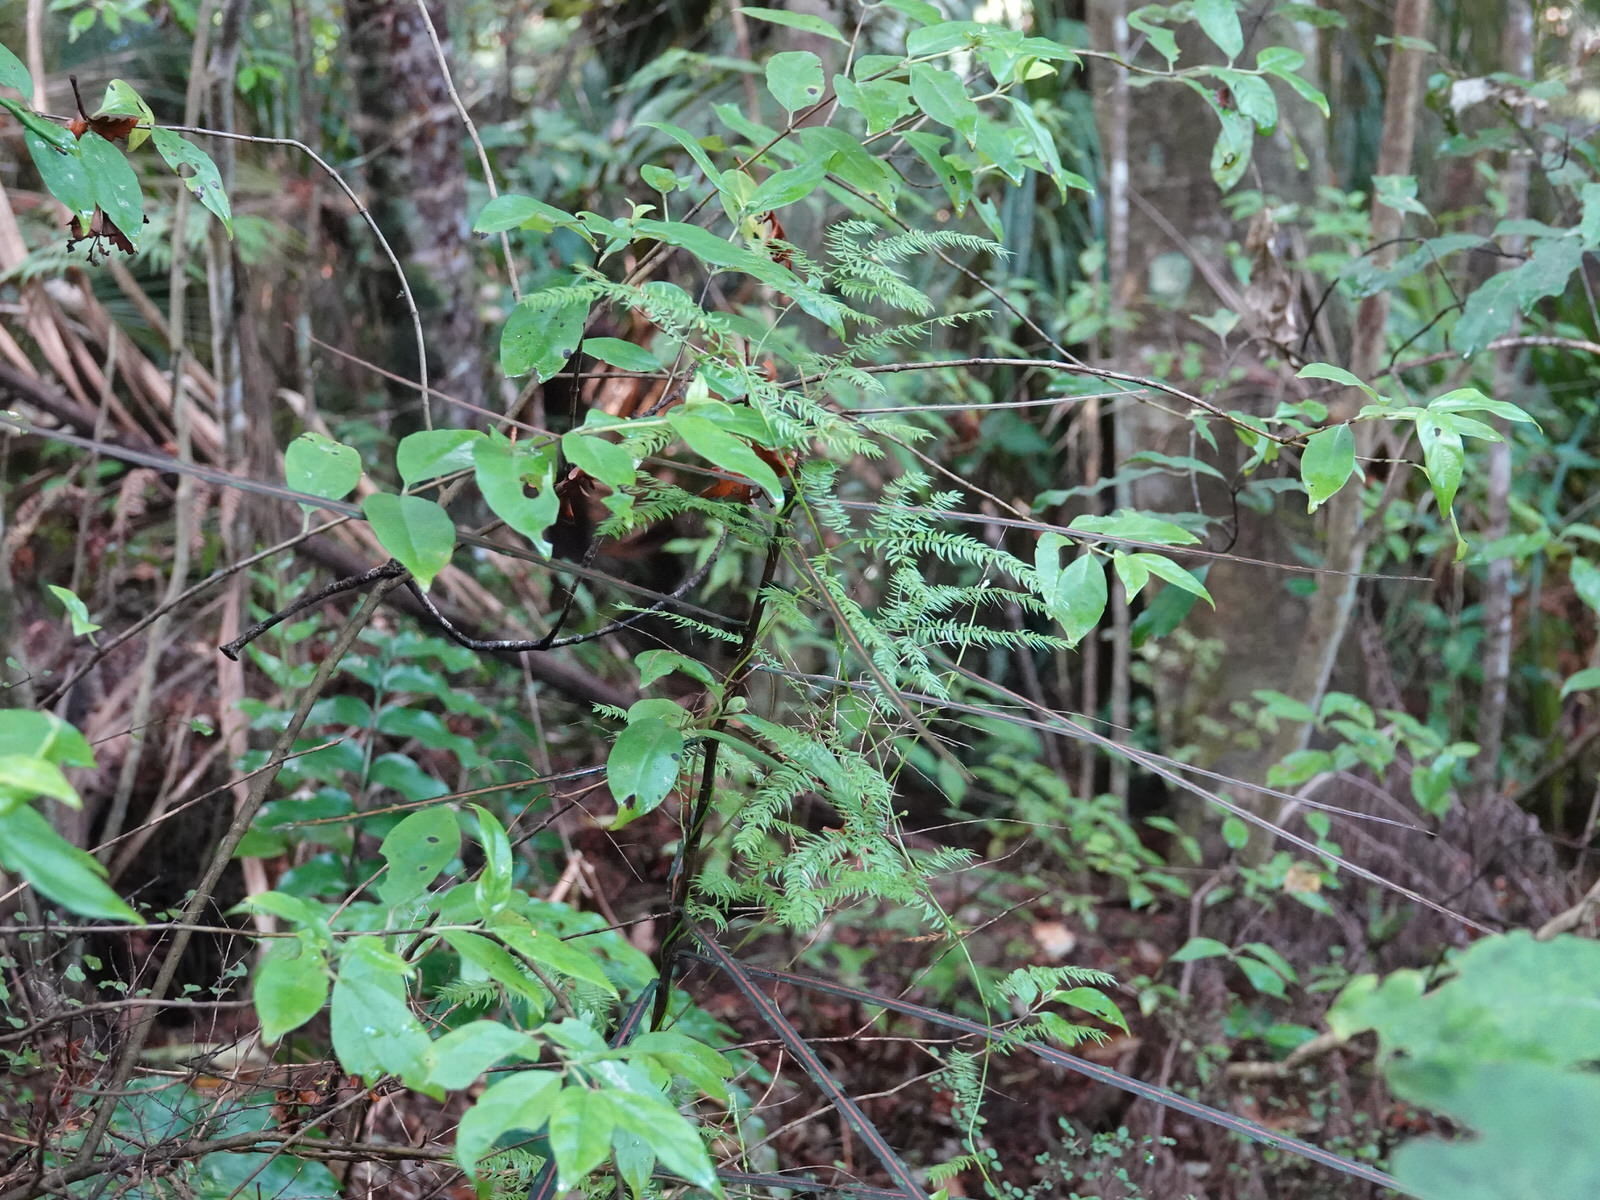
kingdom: Plantae
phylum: Tracheophyta
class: Liliopsida
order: Asparagales
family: Asparagaceae
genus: Asparagus
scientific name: Asparagus scandens
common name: Asparagus-fern
